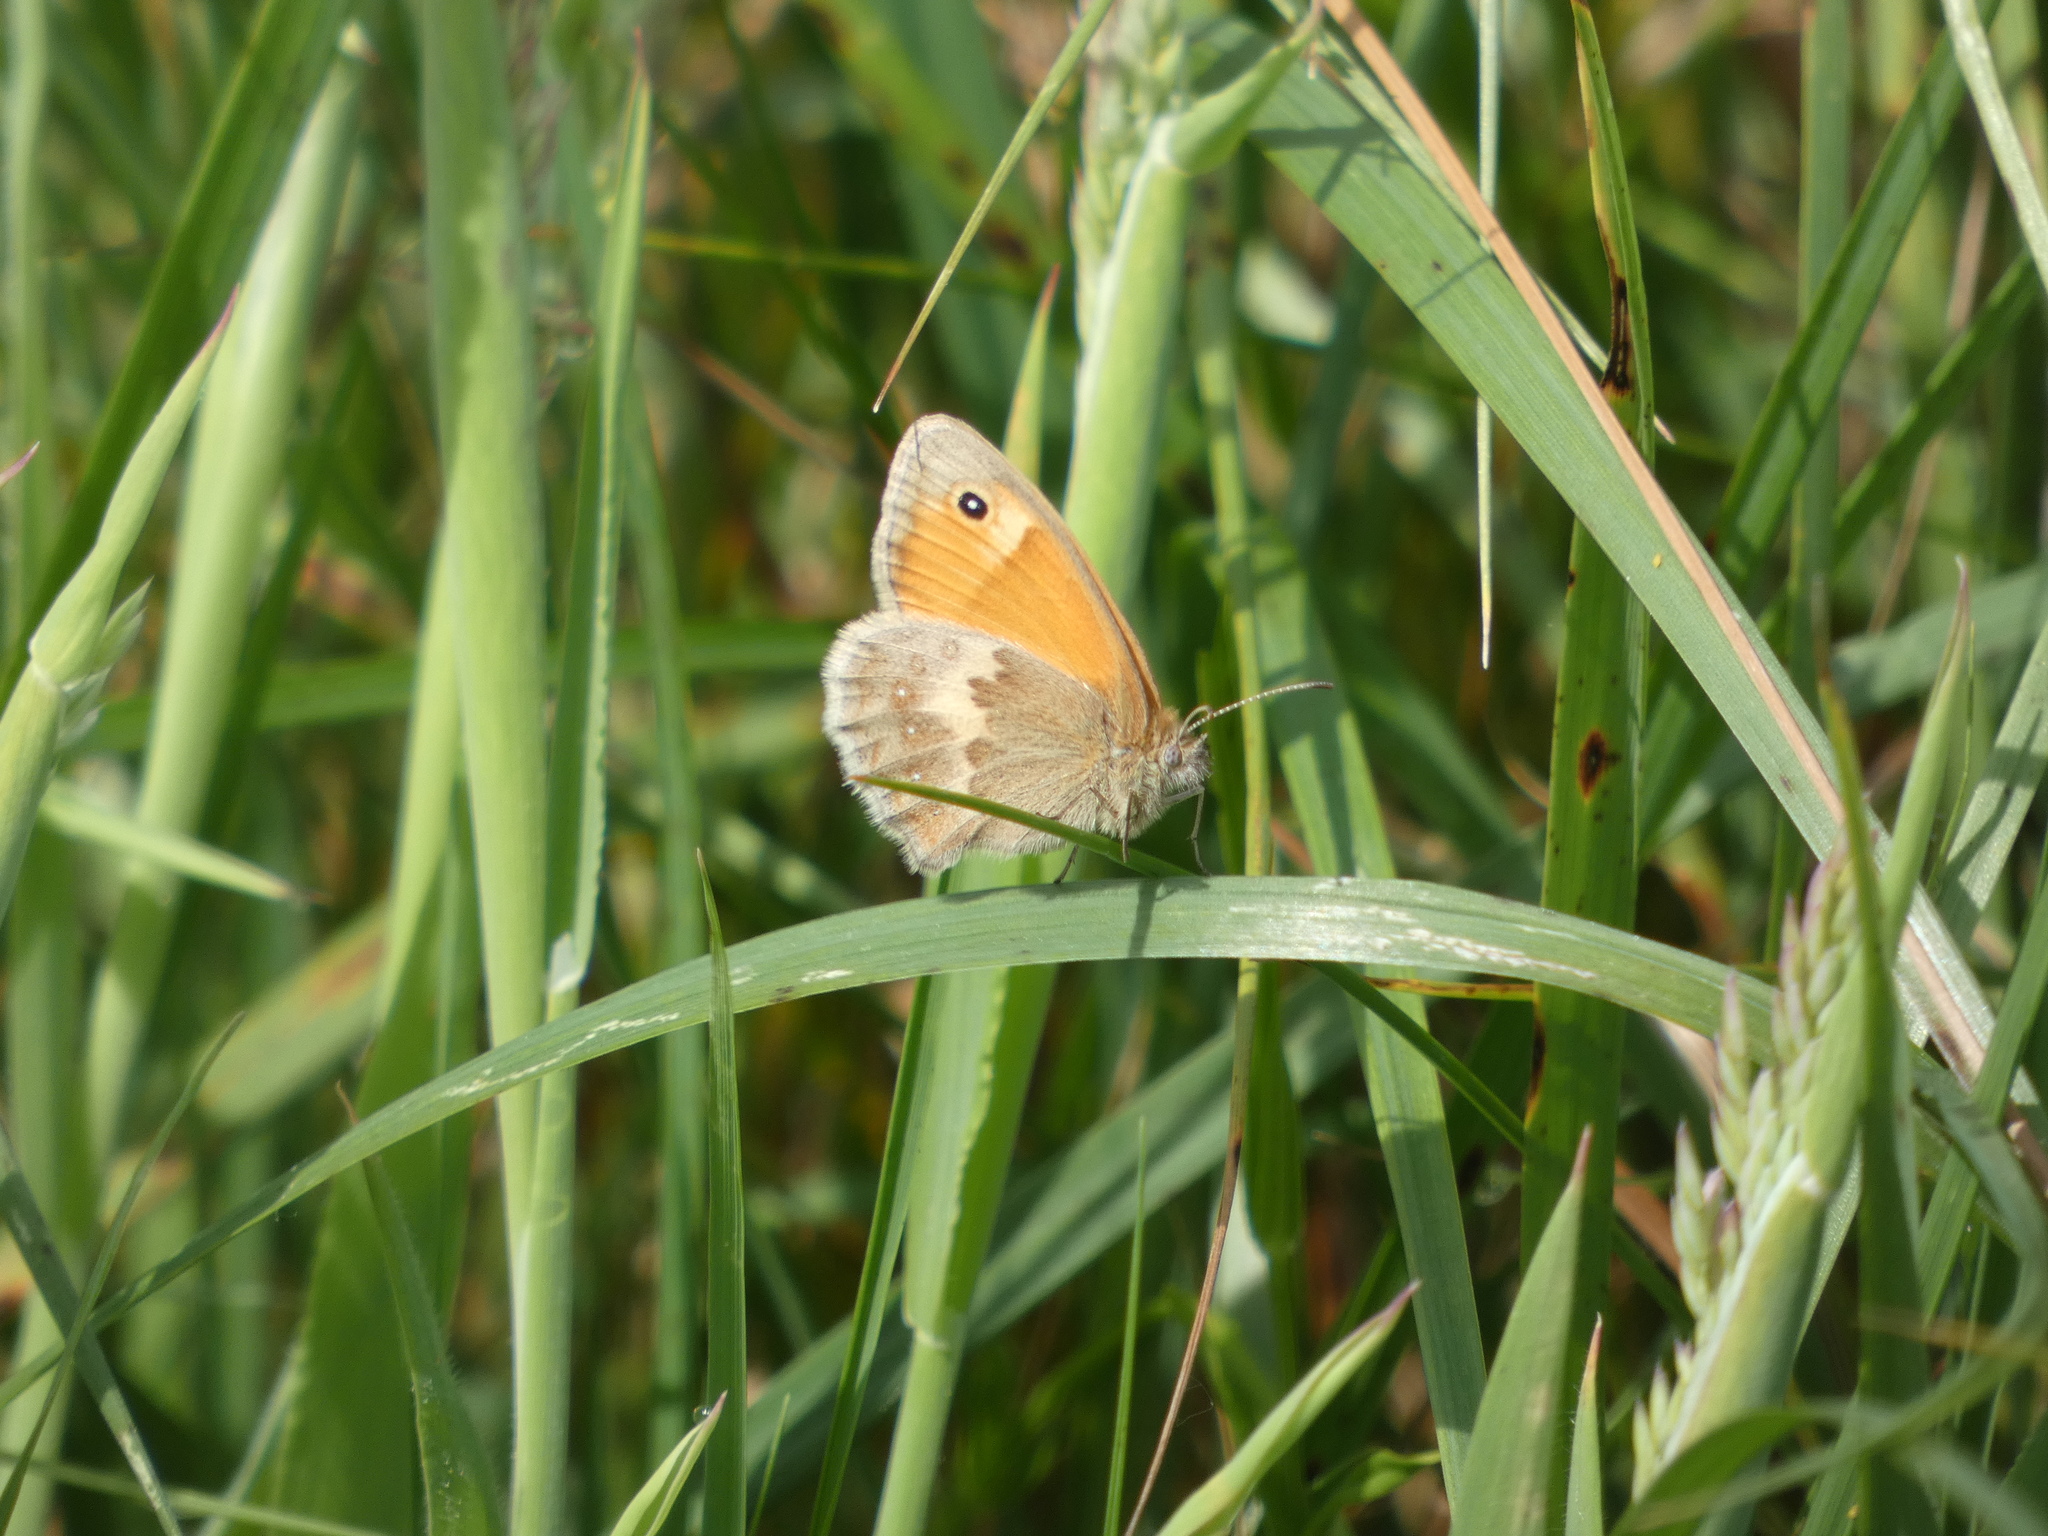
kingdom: Animalia
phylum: Arthropoda
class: Insecta
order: Lepidoptera
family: Nymphalidae
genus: Coenonympha
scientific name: Coenonympha pamphilus
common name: Small heath
